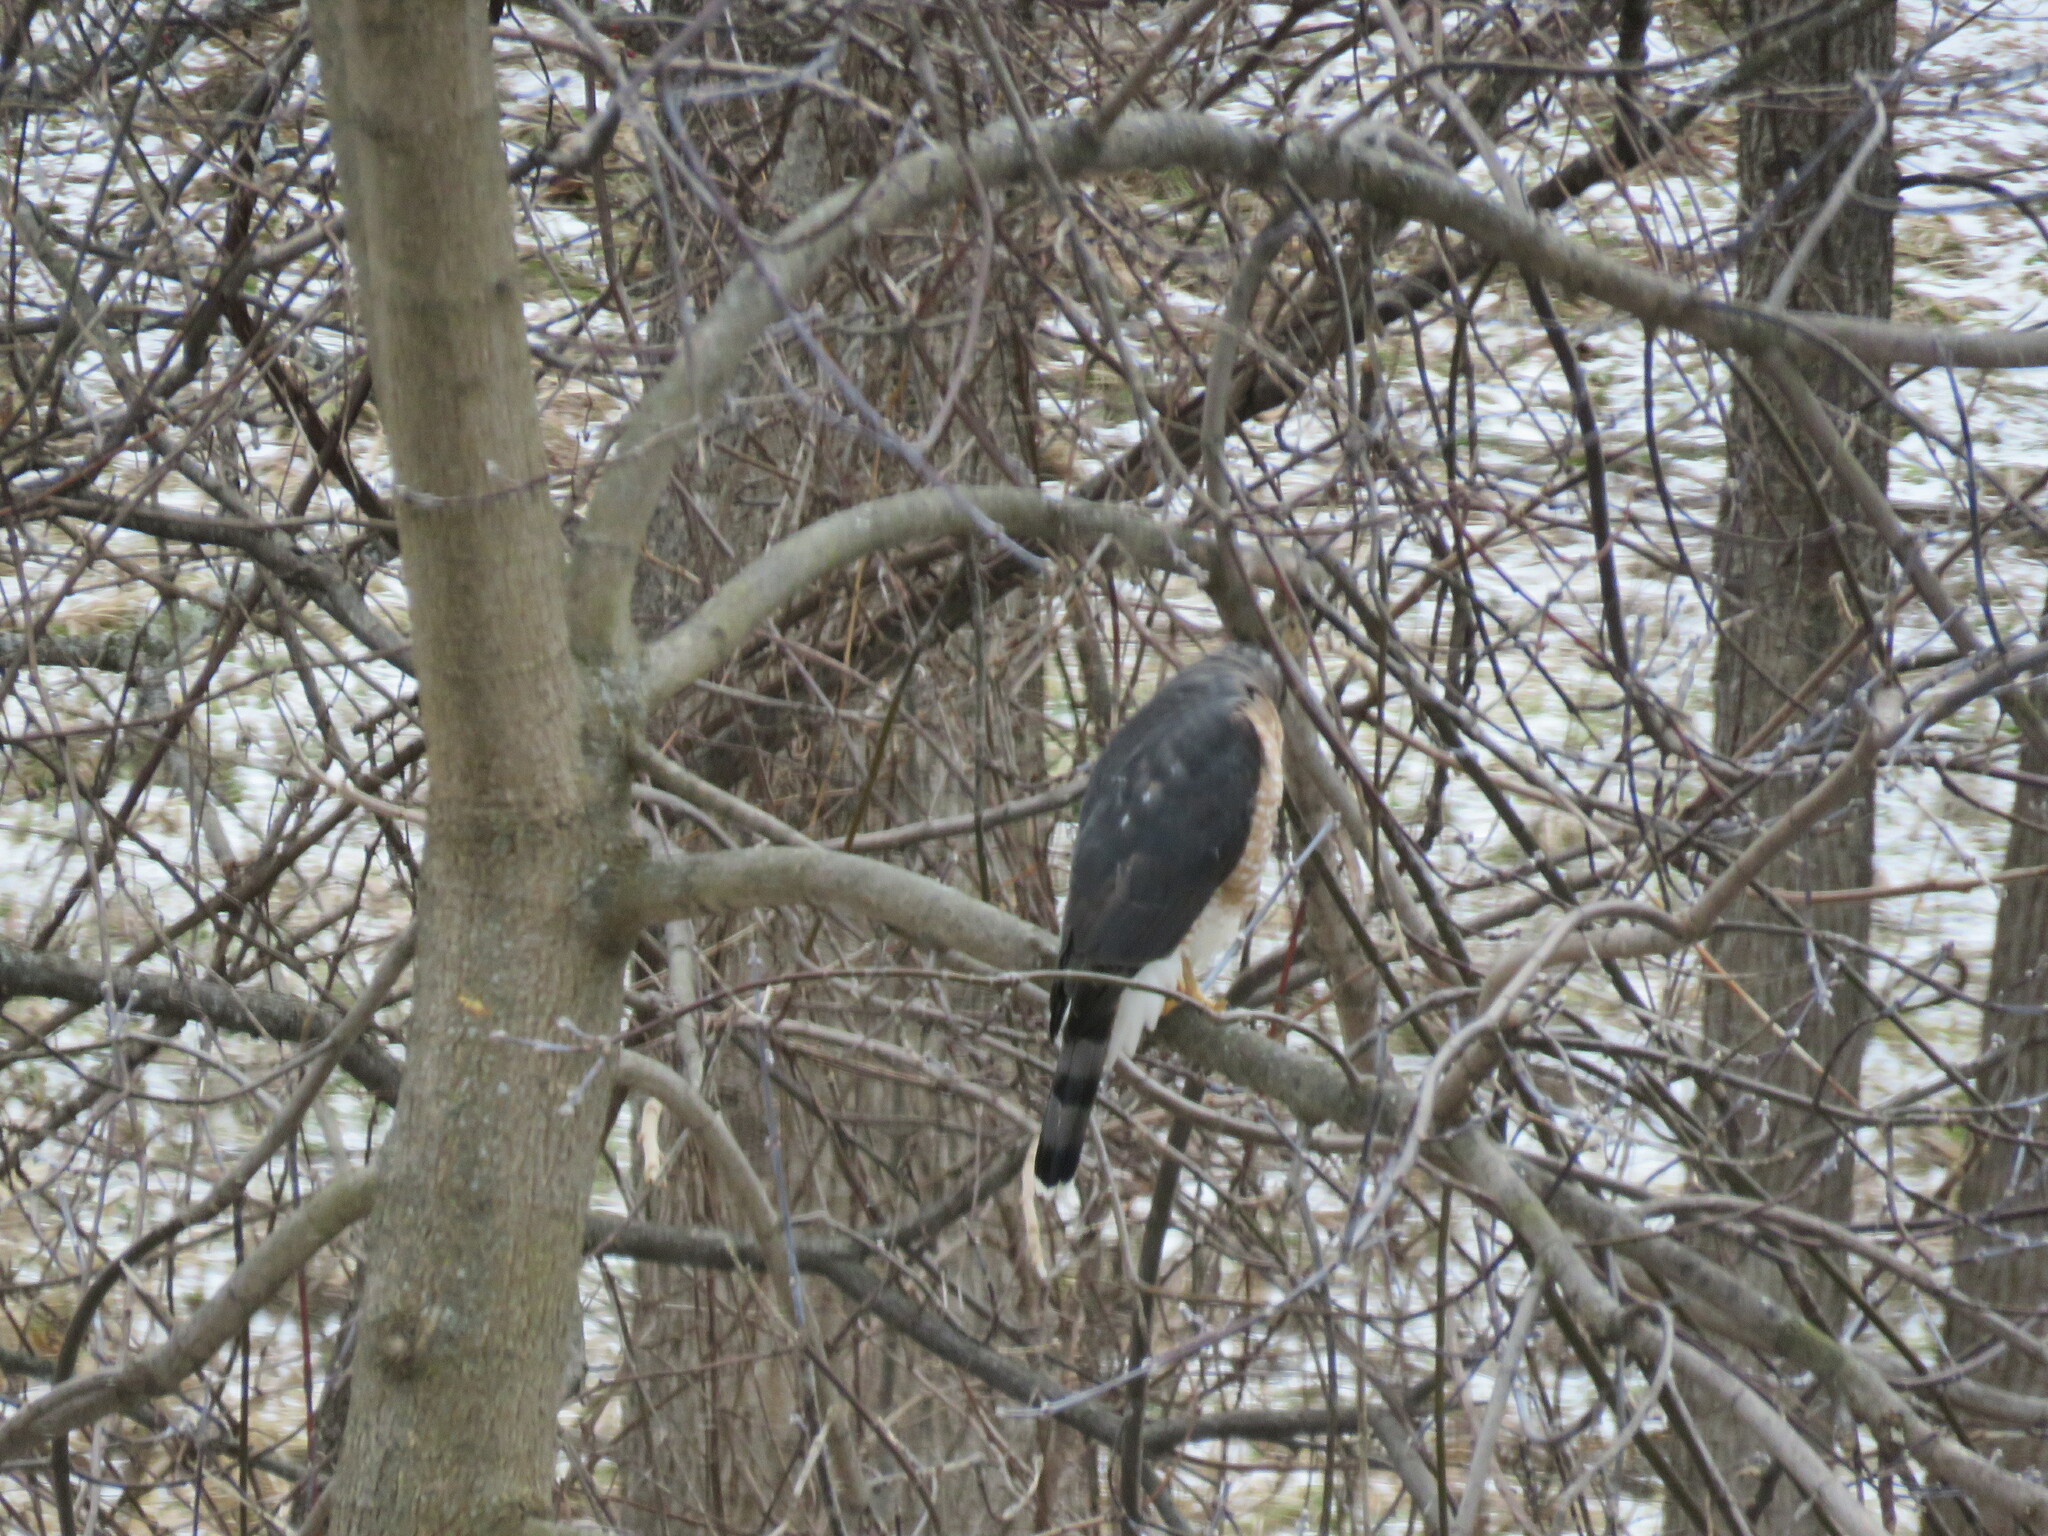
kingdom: Animalia
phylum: Chordata
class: Aves
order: Accipitriformes
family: Accipitridae
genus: Accipiter
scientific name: Accipiter cooperii
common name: Cooper's hawk
